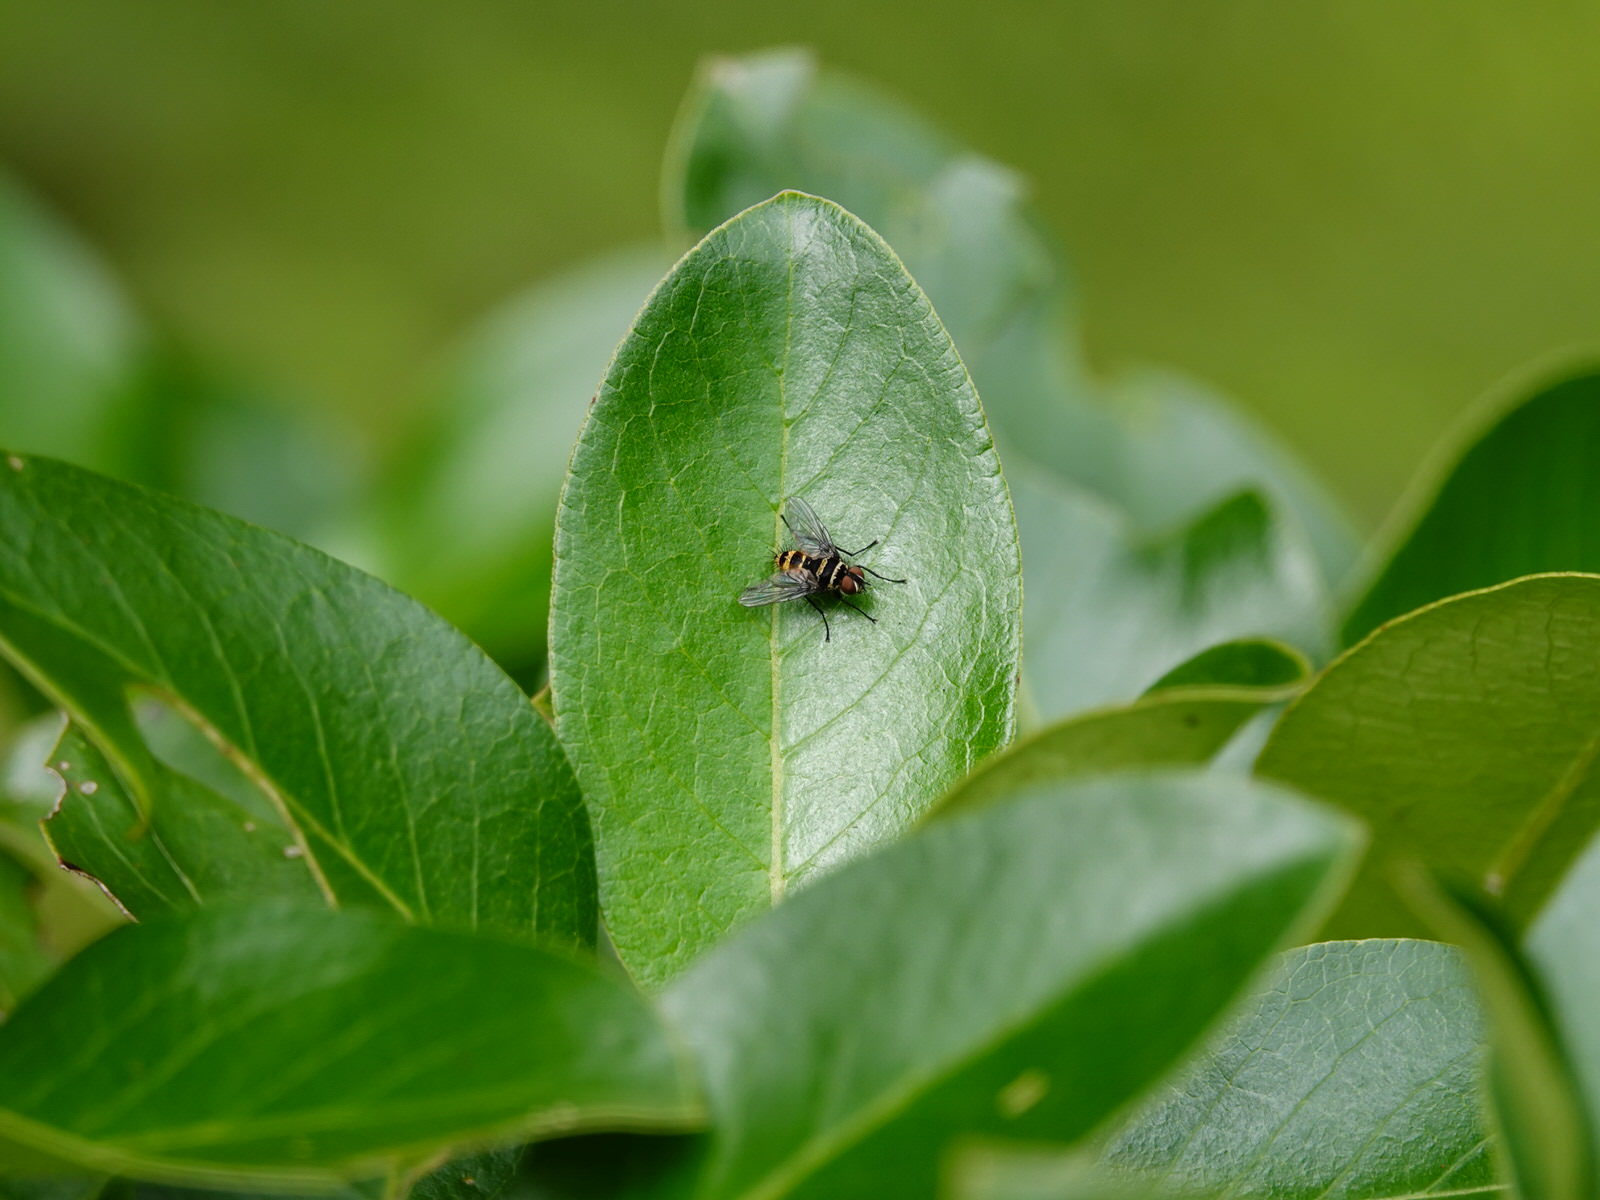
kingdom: Animalia
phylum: Arthropoda
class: Insecta
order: Diptera
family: Tachinidae
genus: Trigonospila
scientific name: Trigonospila brevifacies
